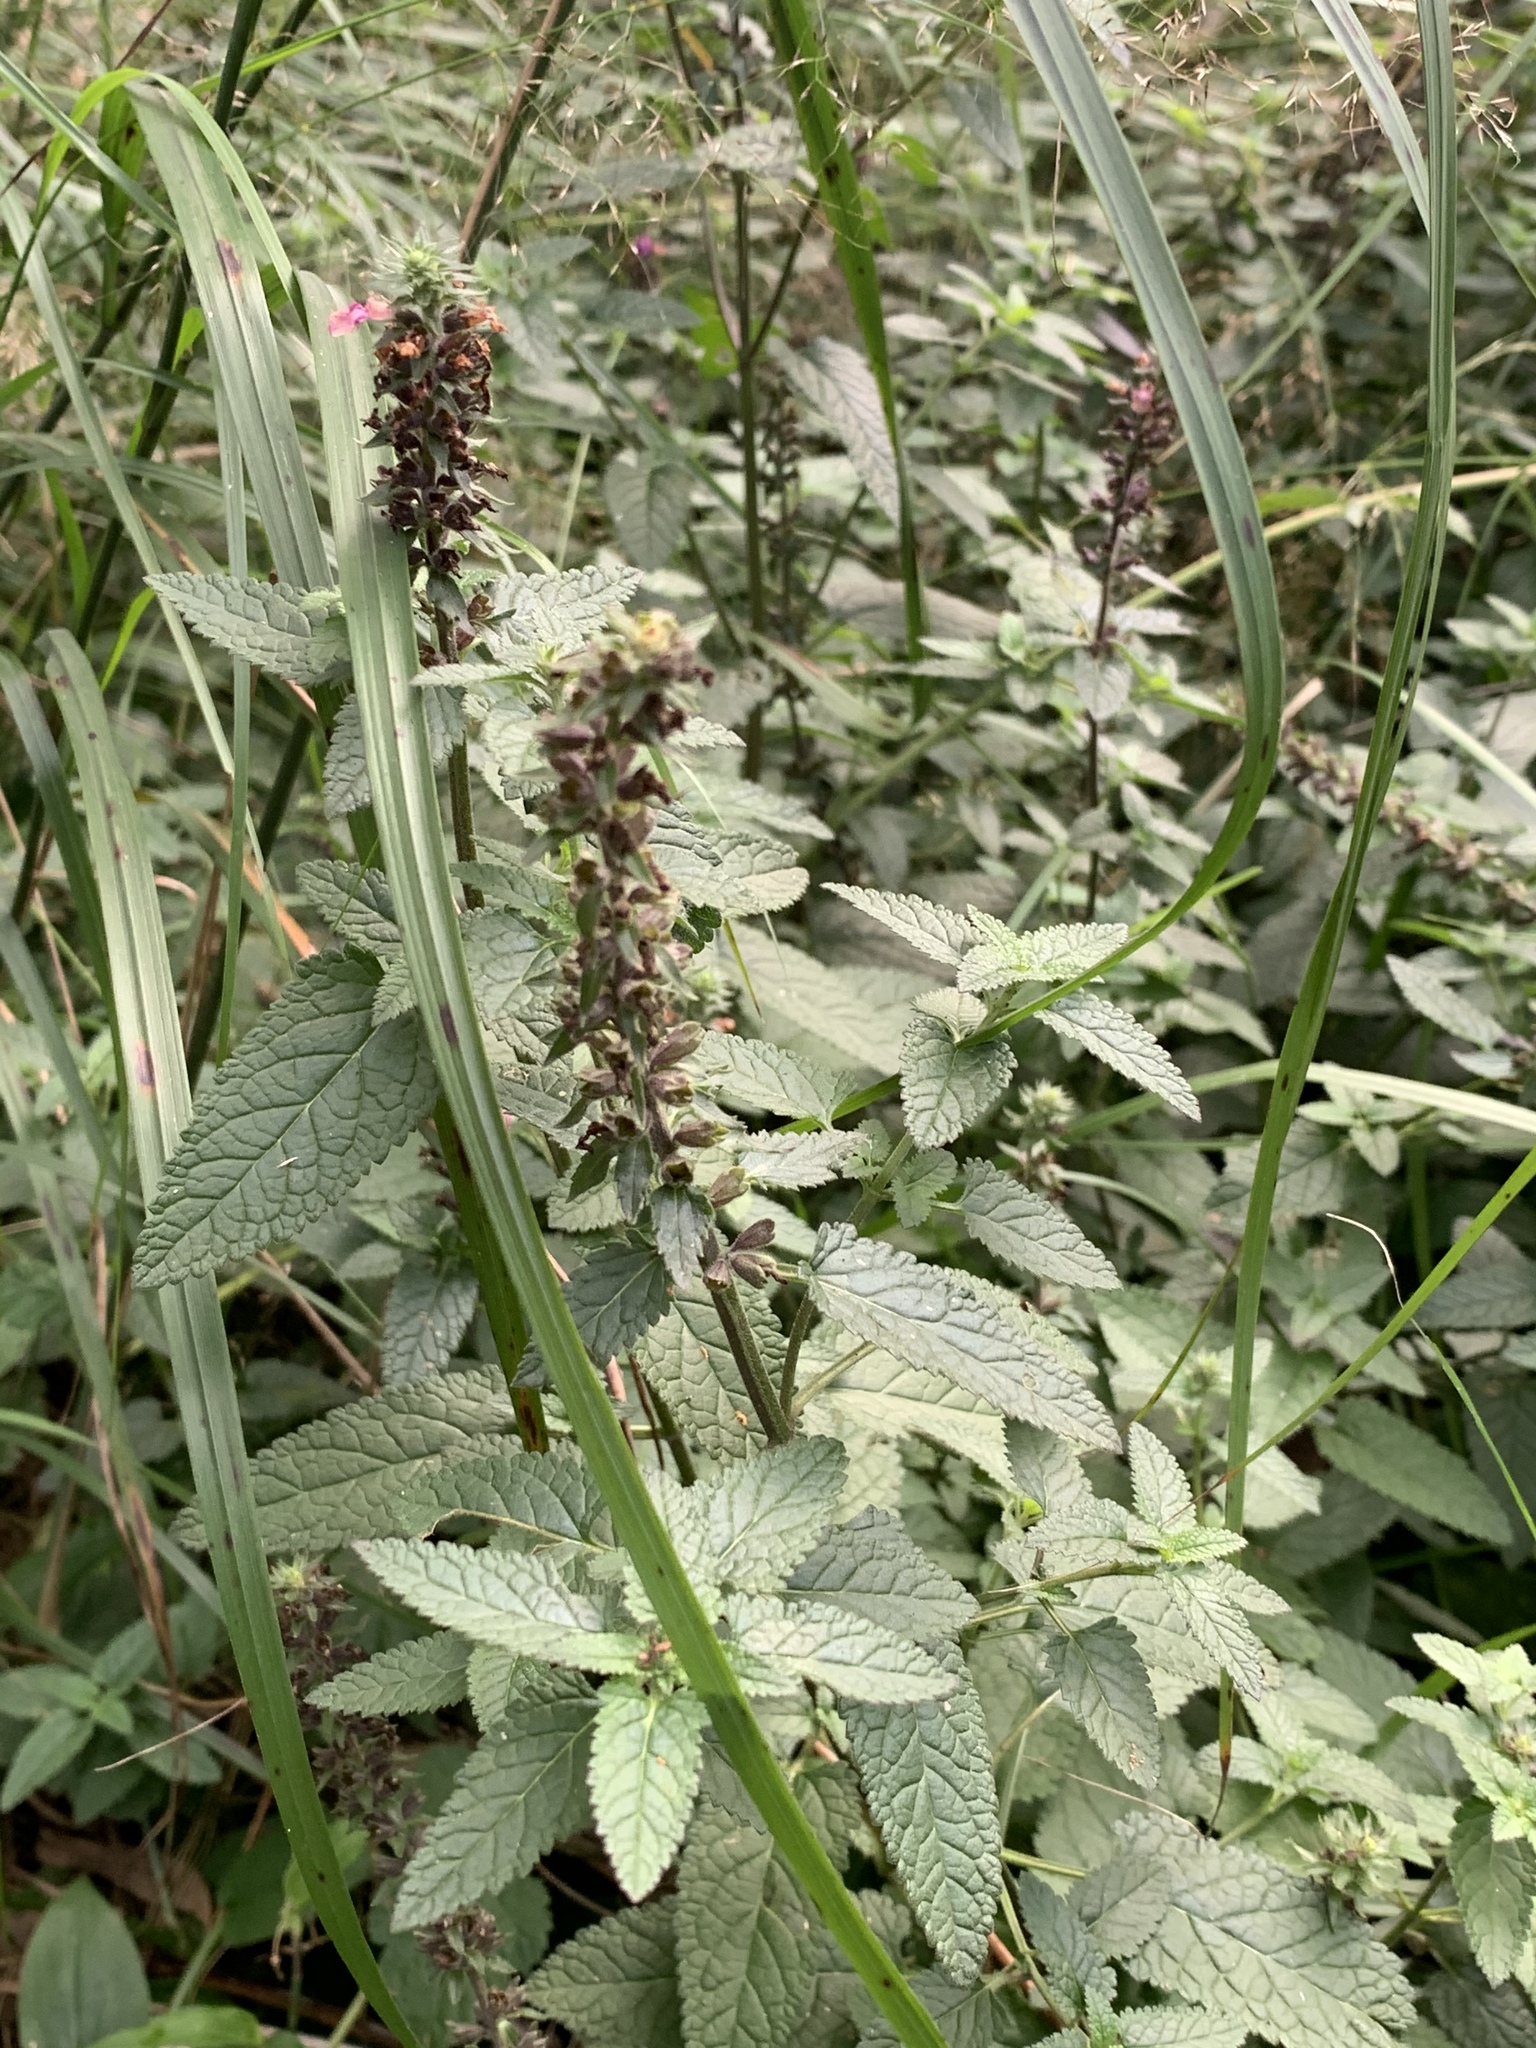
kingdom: Plantae
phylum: Tracheophyta
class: Magnoliopsida
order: Lamiales
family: Lamiaceae
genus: Teucrium
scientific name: Teucrium argutum
